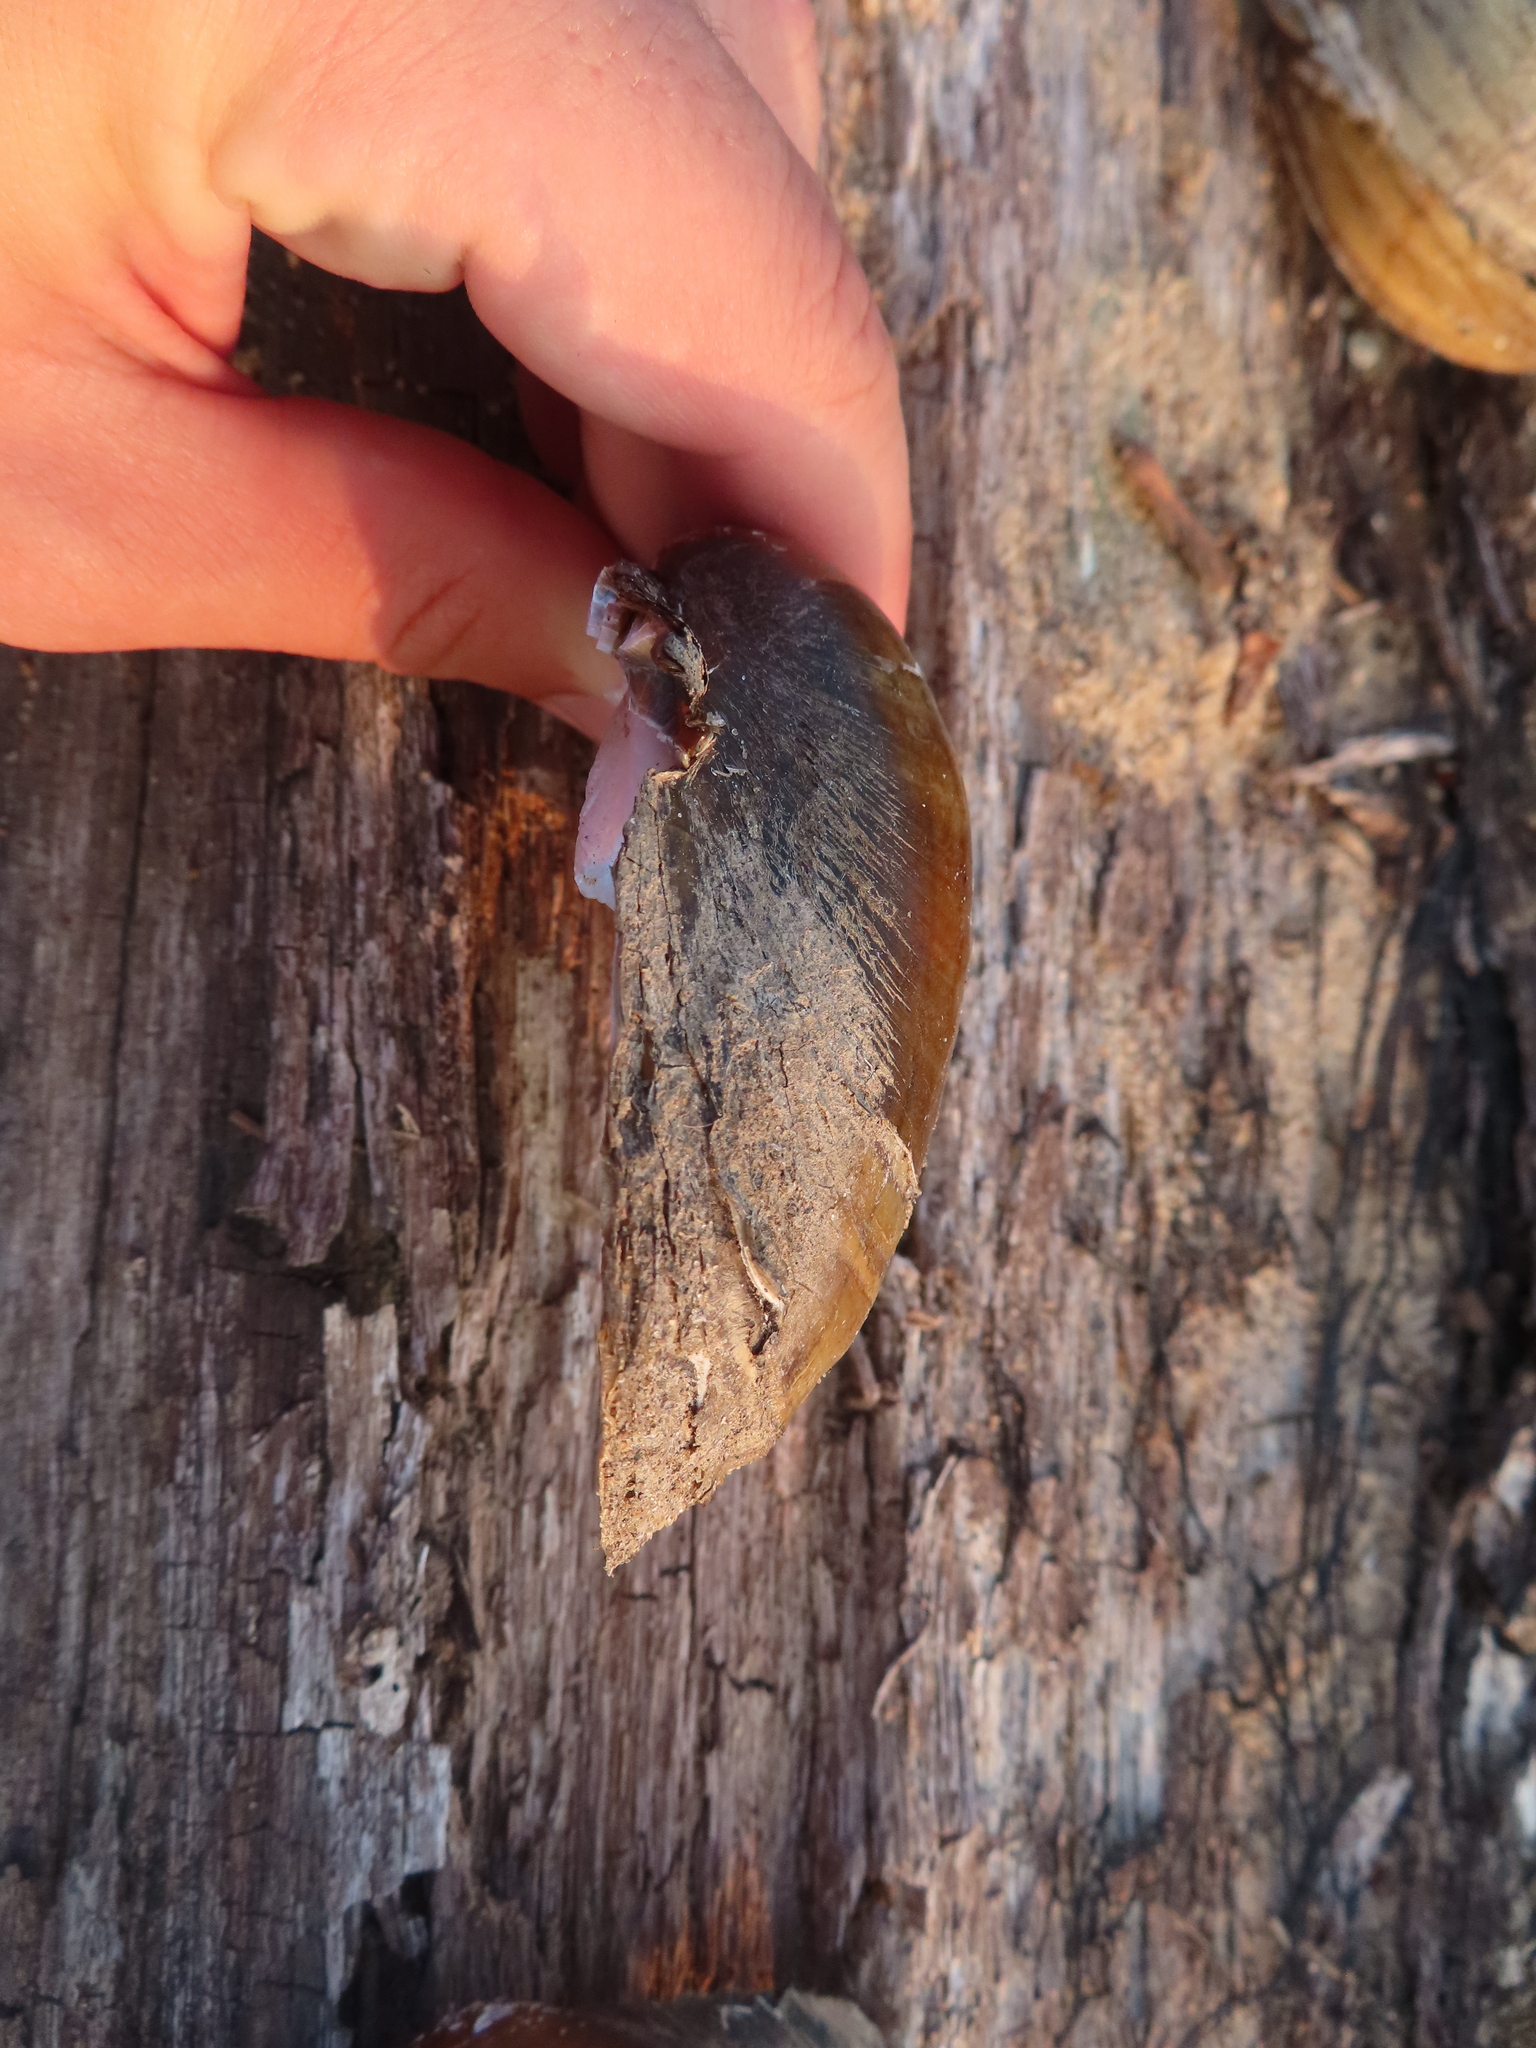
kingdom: Animalia
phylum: Mollusca
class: Bivalvia
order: Unionida
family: Unionidae
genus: Lampsilis
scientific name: Lampsilis cardium
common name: Plain pocketbook
